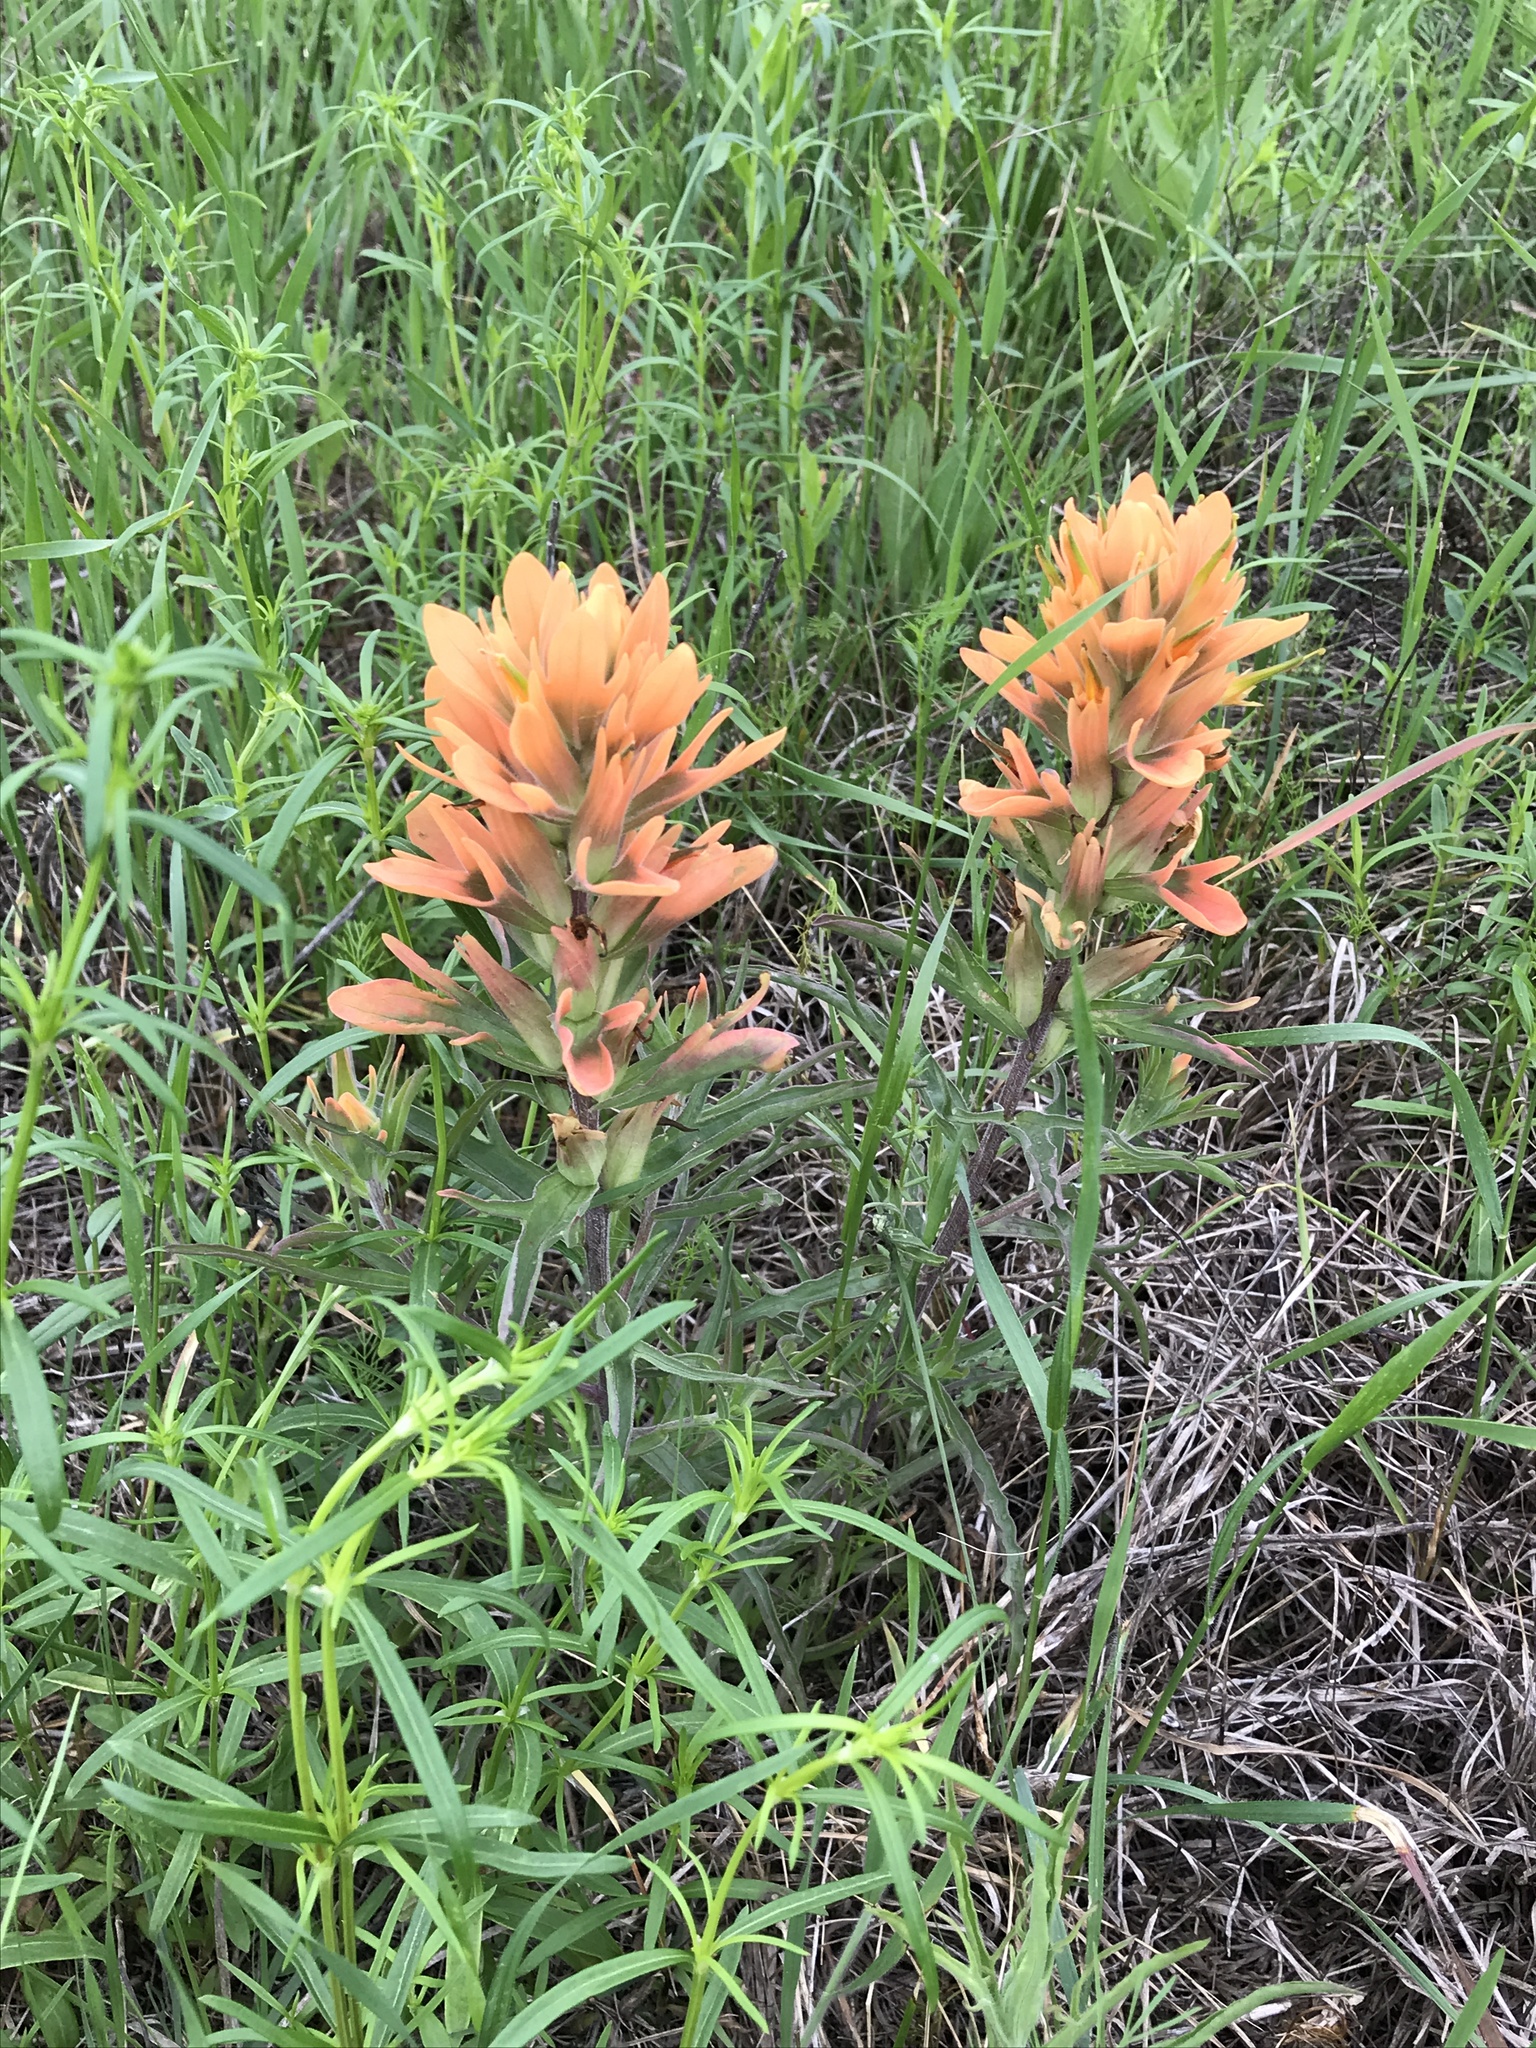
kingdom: Plantae
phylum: Tracheophyta
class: Magnoliopsida
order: Lamiales
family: Orobanchaceae
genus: Castilleja
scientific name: Castilleja lindheimeri
